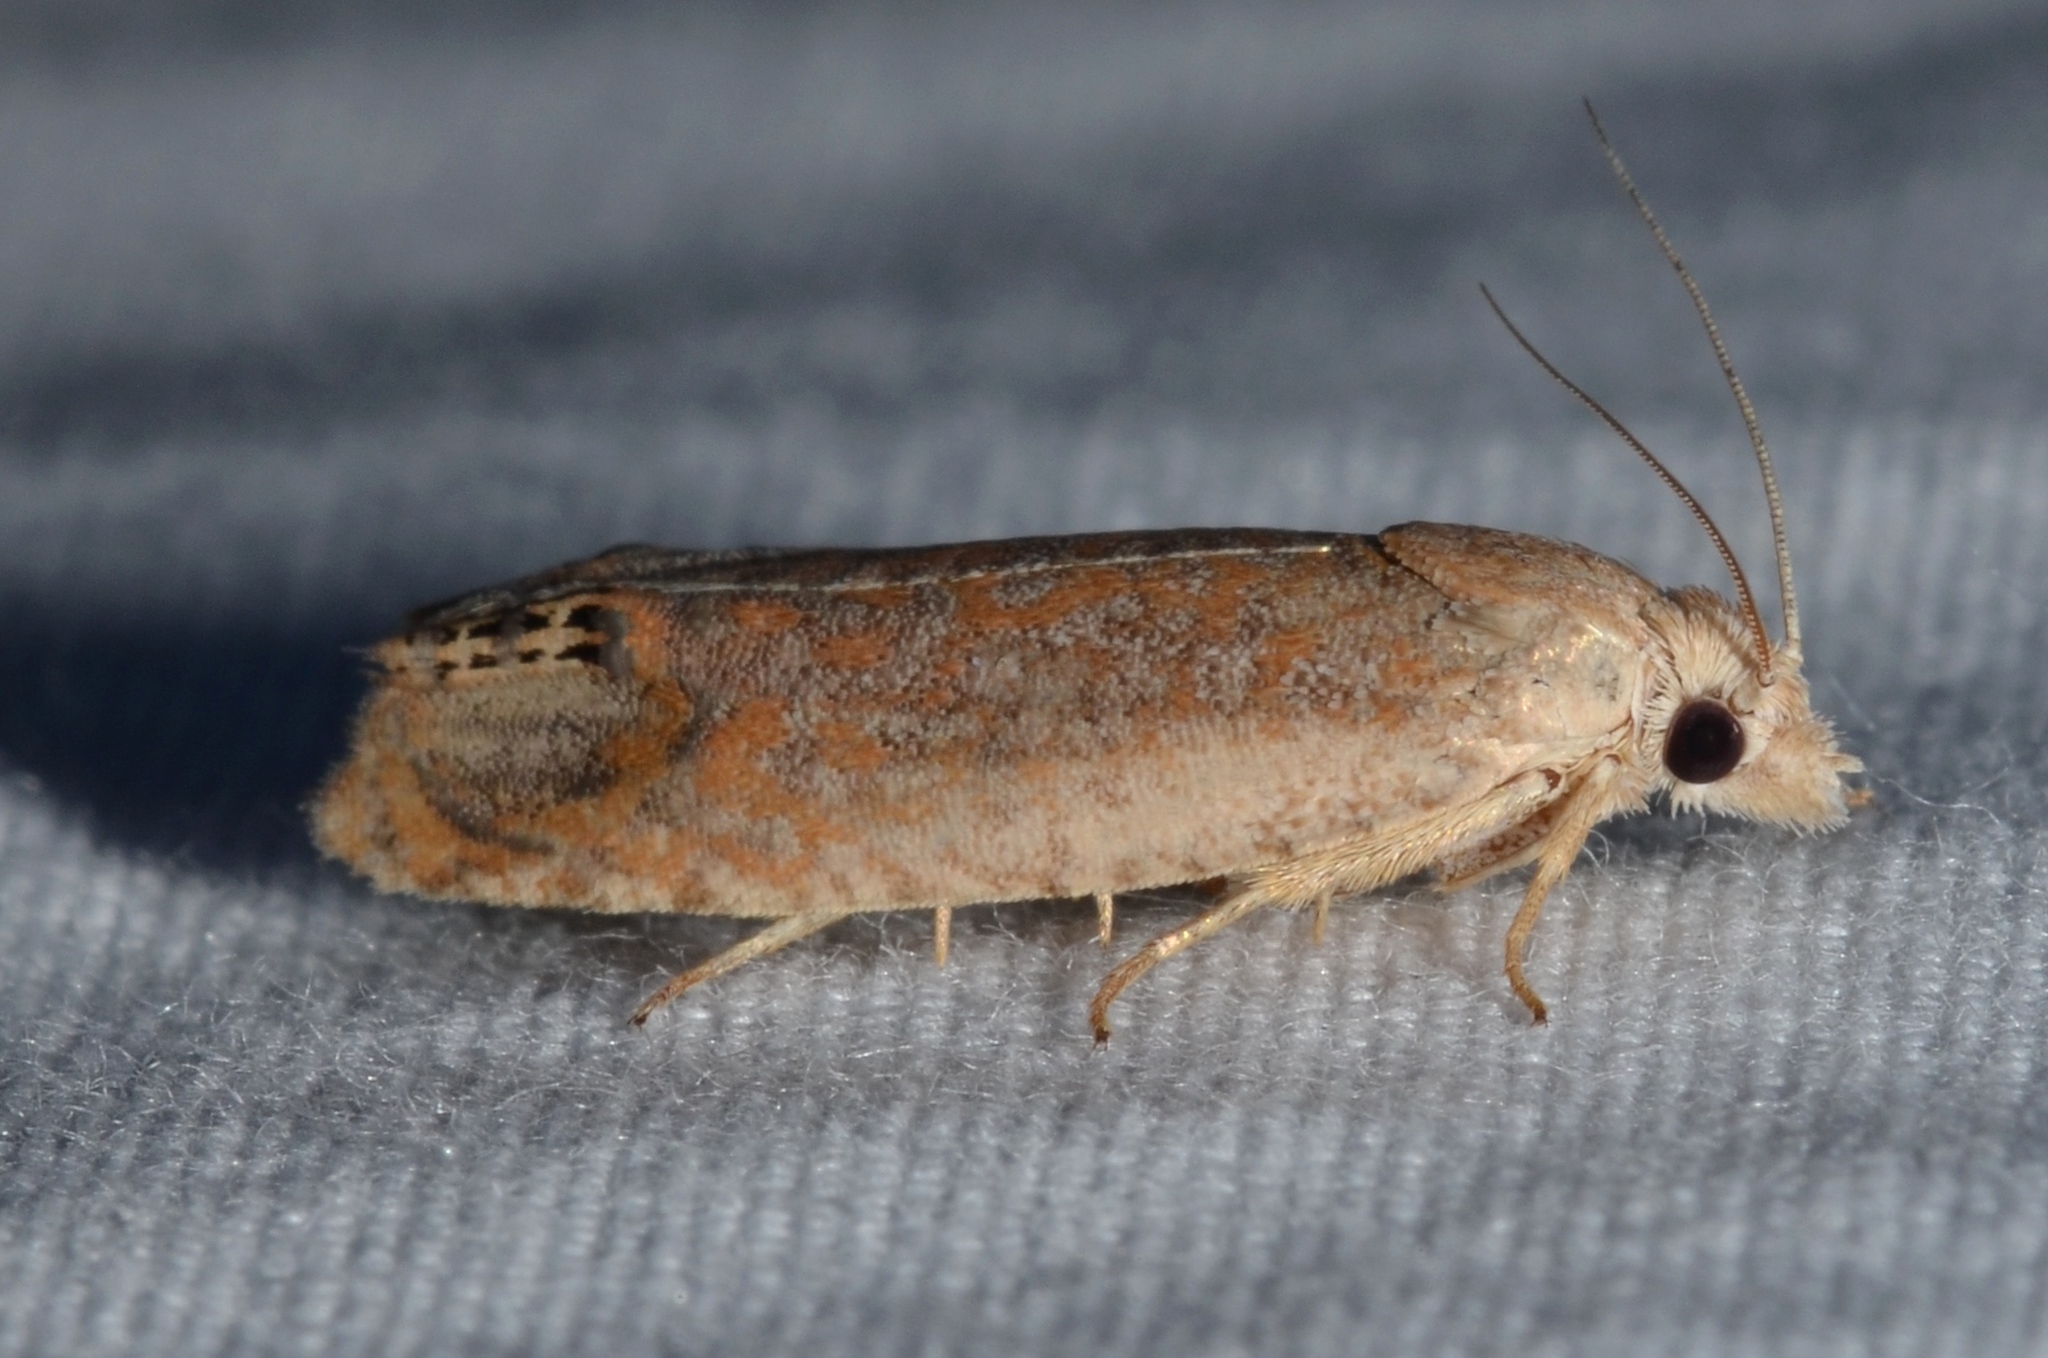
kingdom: Animalia
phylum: Arthropoda
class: Insecta
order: Lepidoptera
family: Tortricidae
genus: Eucosma
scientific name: Eucosma glomerana
